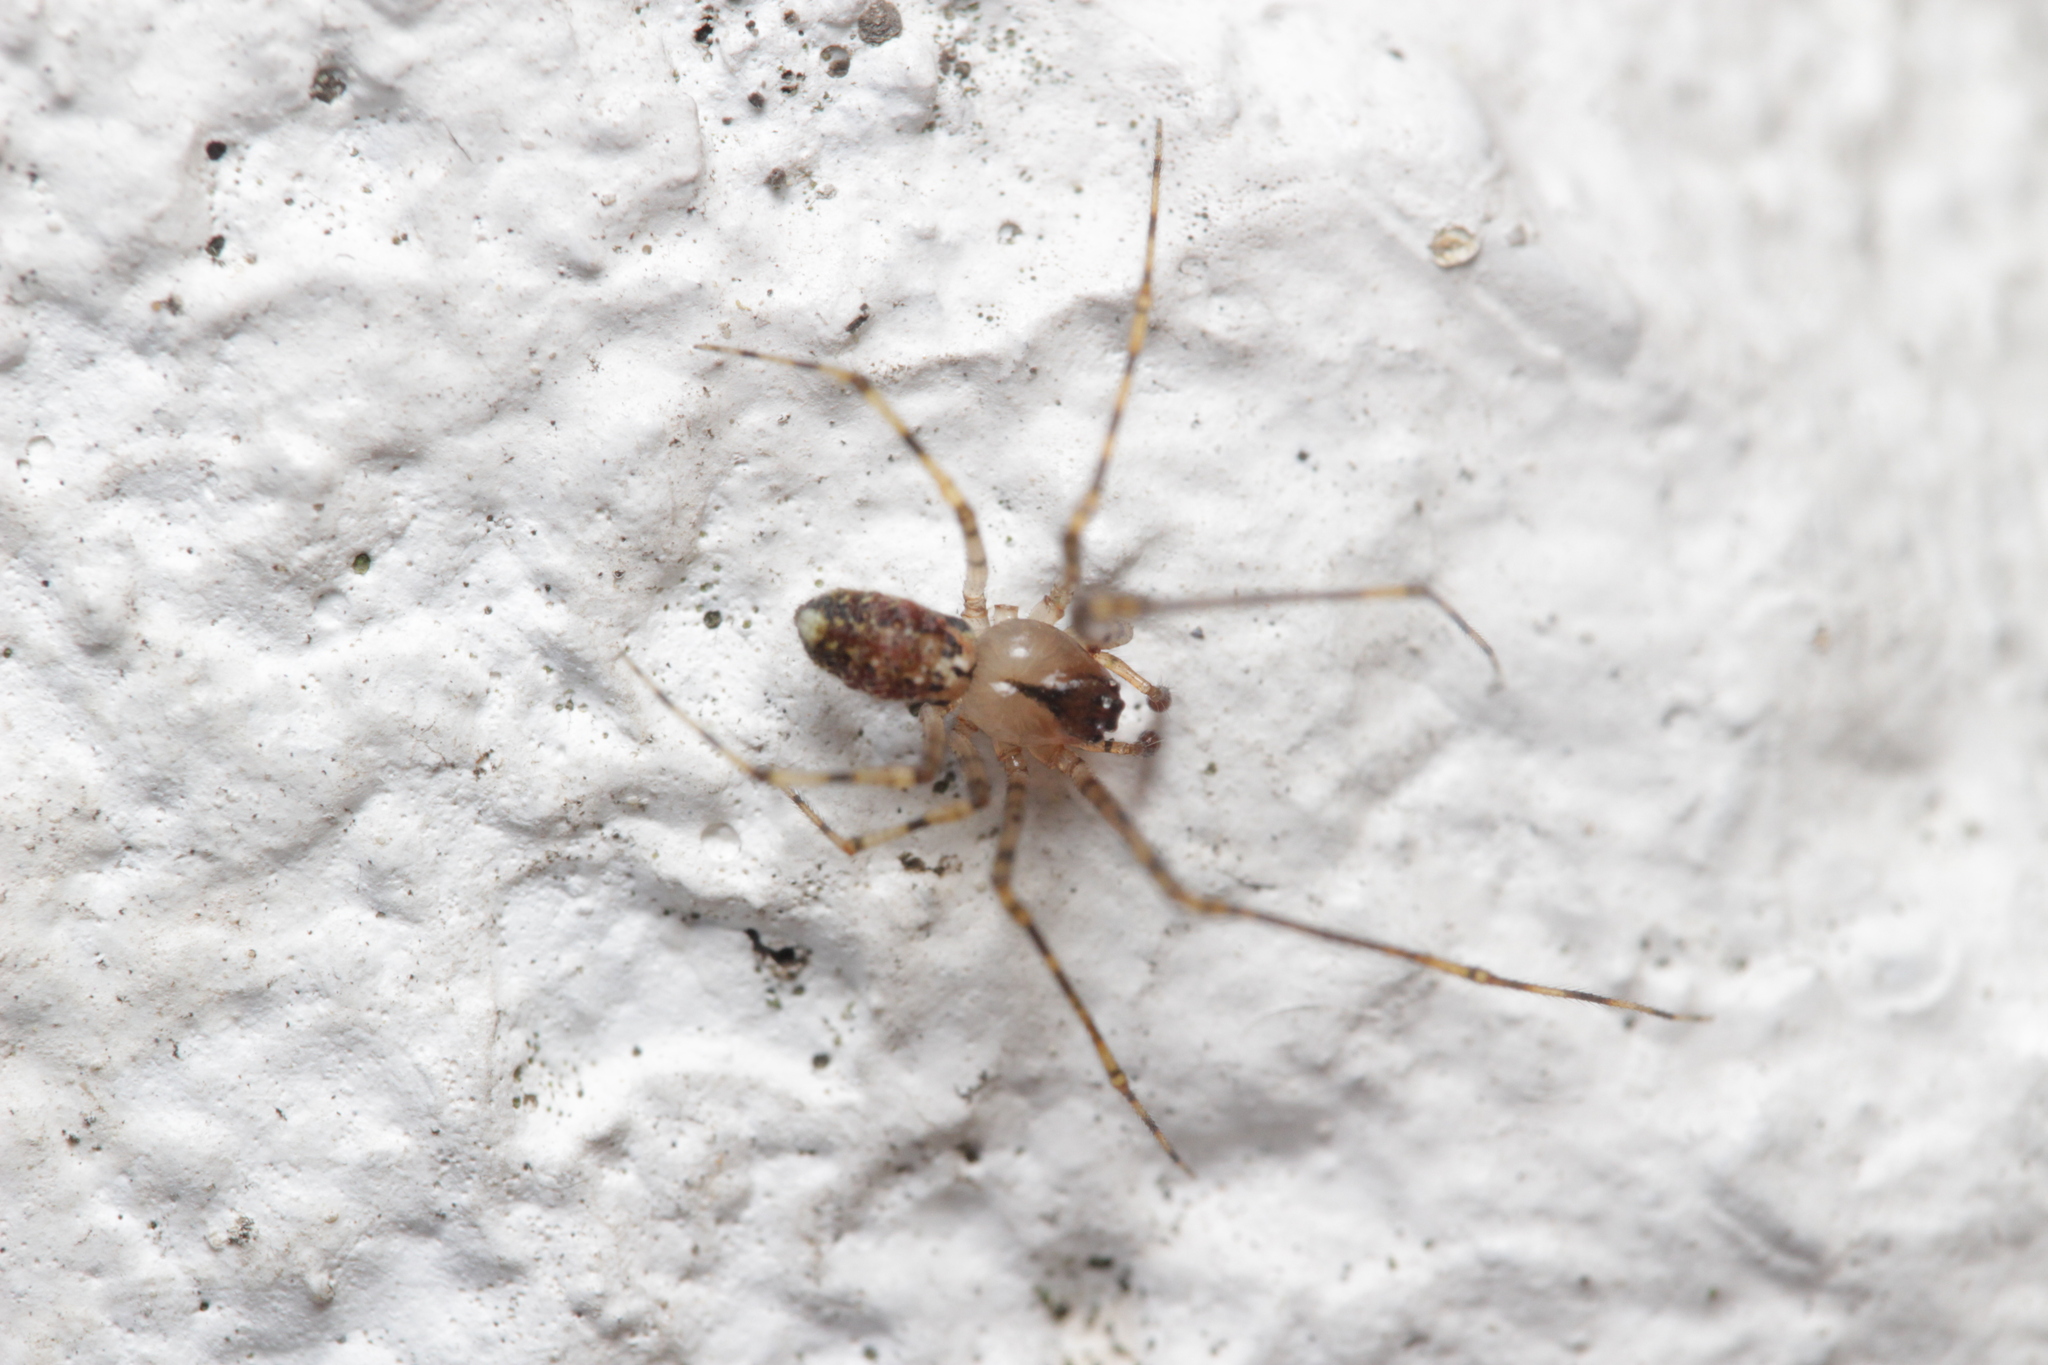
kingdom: Animalia
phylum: Arthropoda
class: Arachnida
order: Araneae
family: Theridiidae
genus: Platnickina
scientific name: Platnickina tincta
